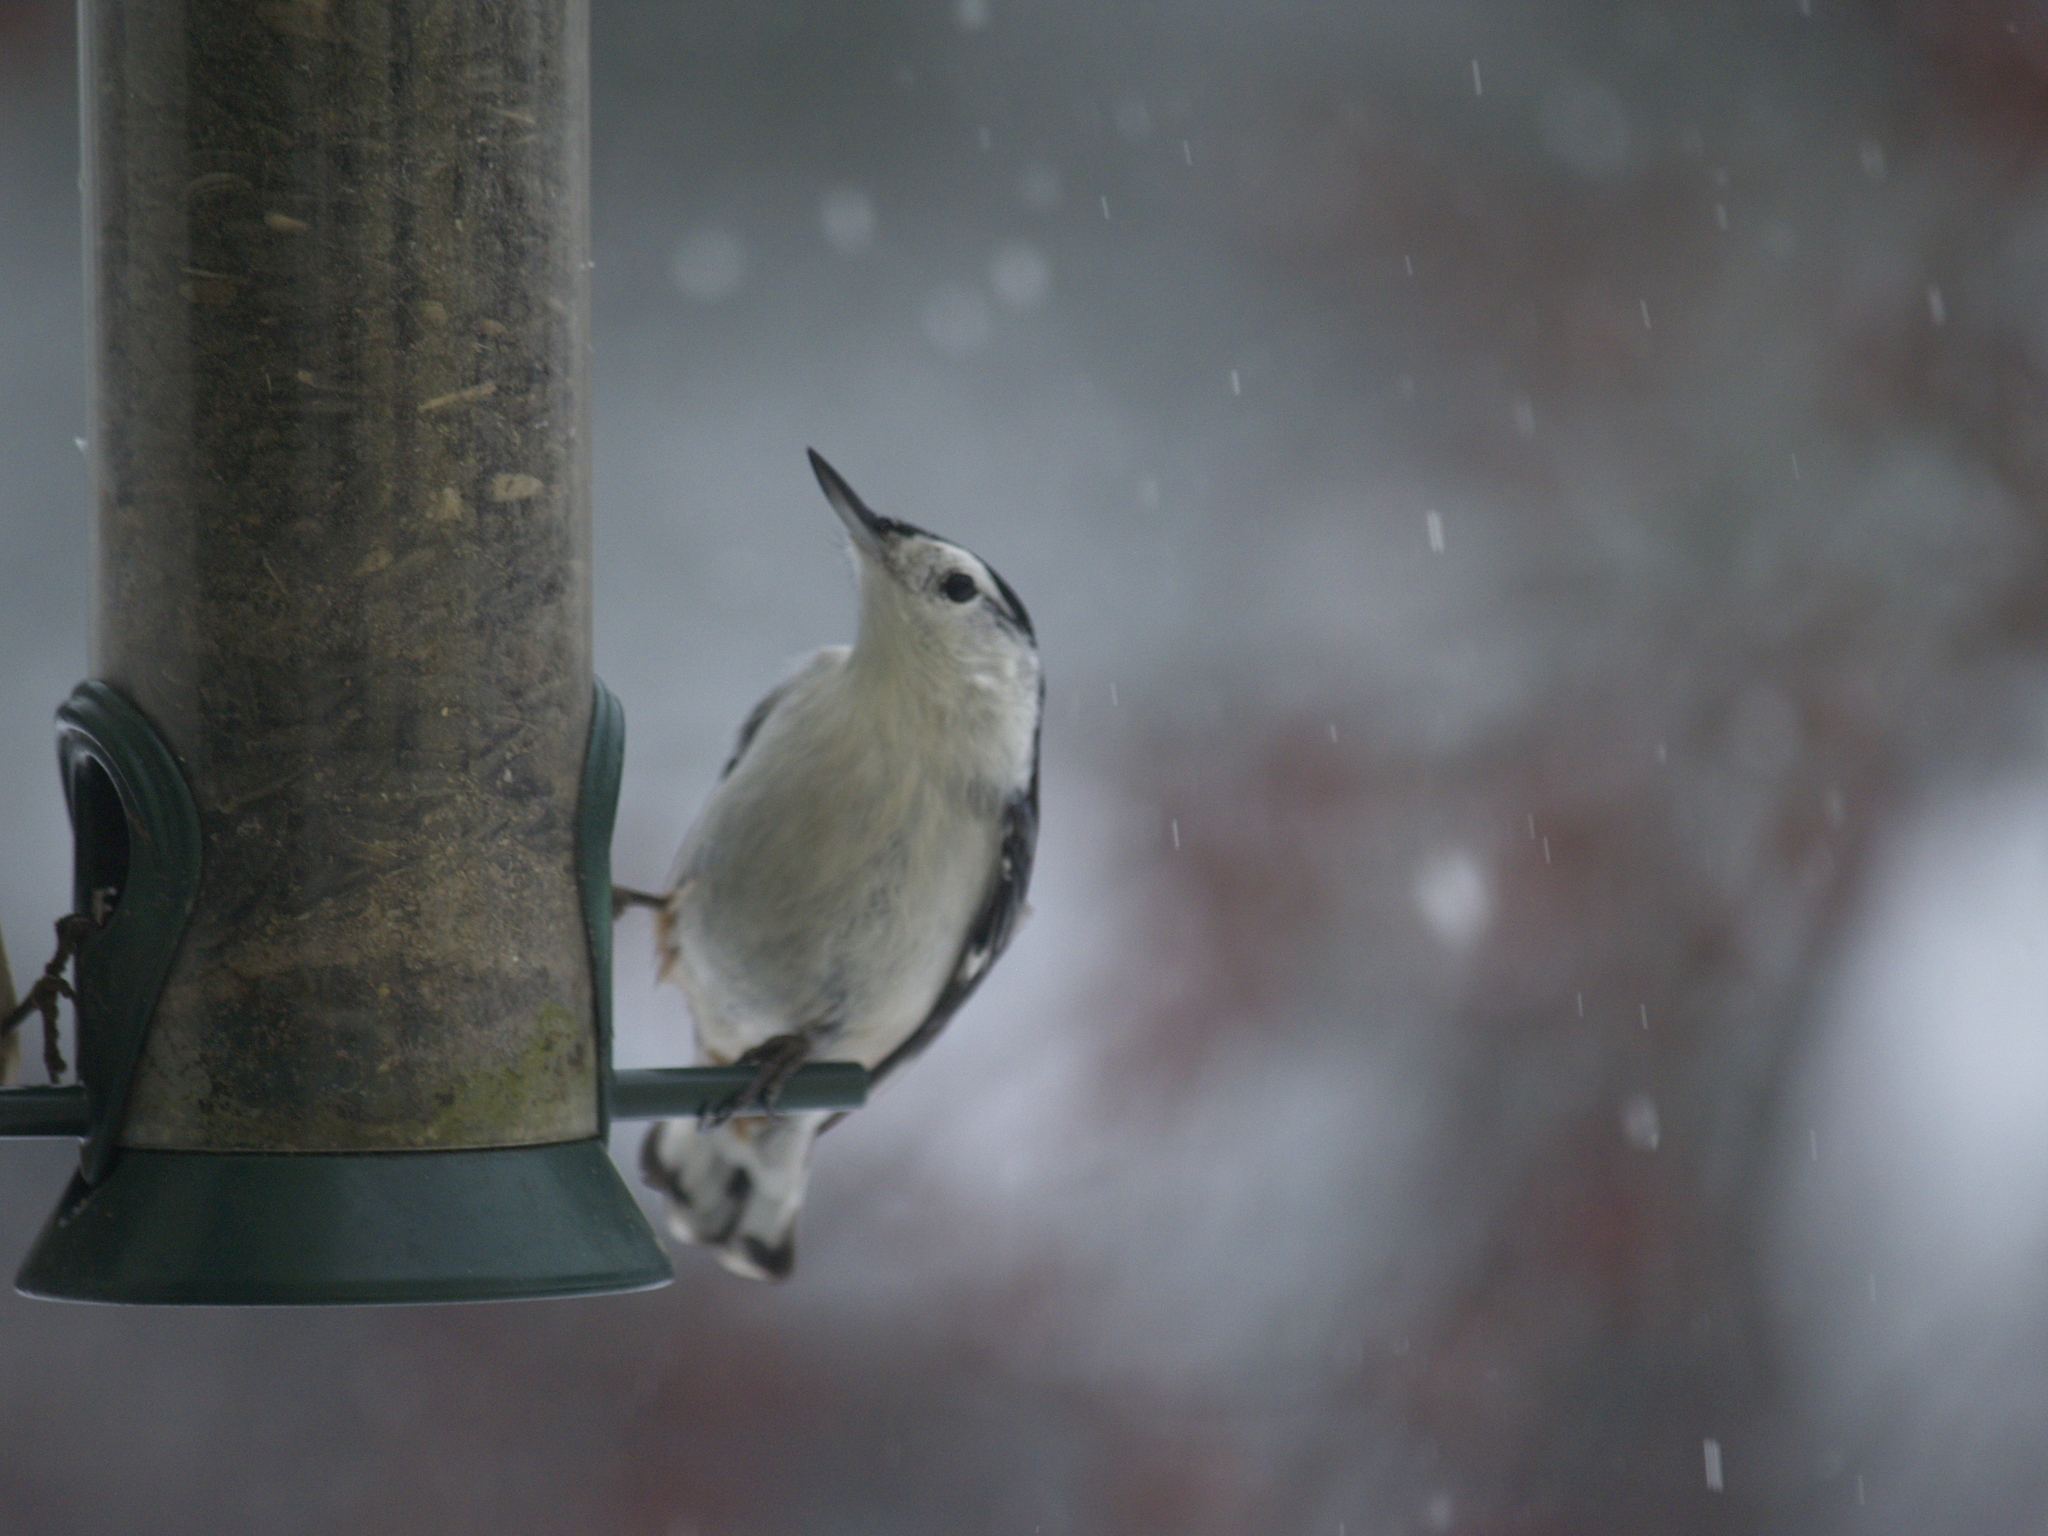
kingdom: Animalia
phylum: Chordata
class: Aves
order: Passeriformes
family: Sittidae
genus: Sitta
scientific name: Sitta carolinensis
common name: White-breasted nuthatch
